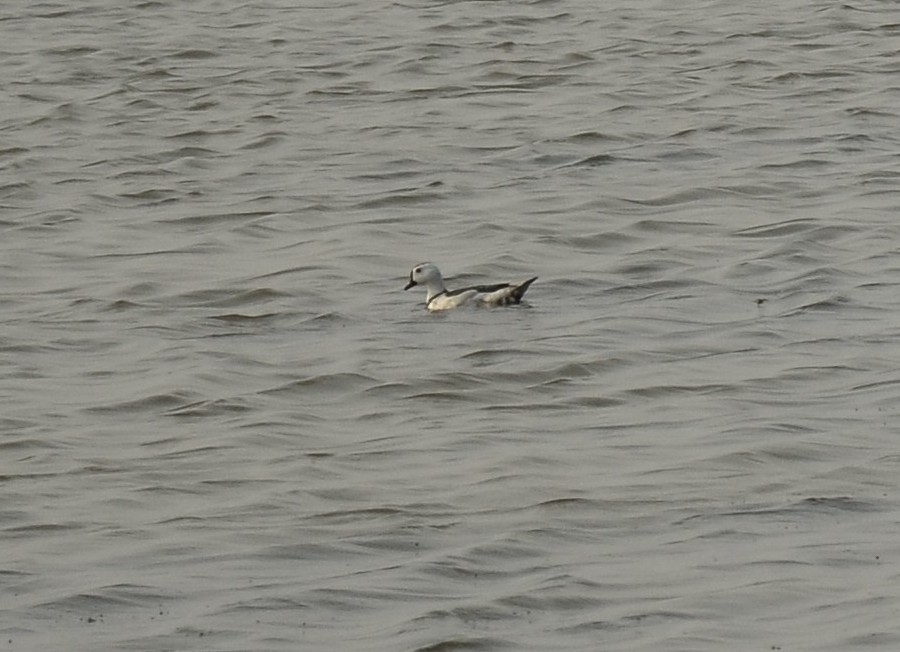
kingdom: Animalia
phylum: Chordata
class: Aves
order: Anseriformes
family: Anatidae
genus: Nettapus
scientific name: Nettapus coromandelianus
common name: Cotton pygmy-goose
